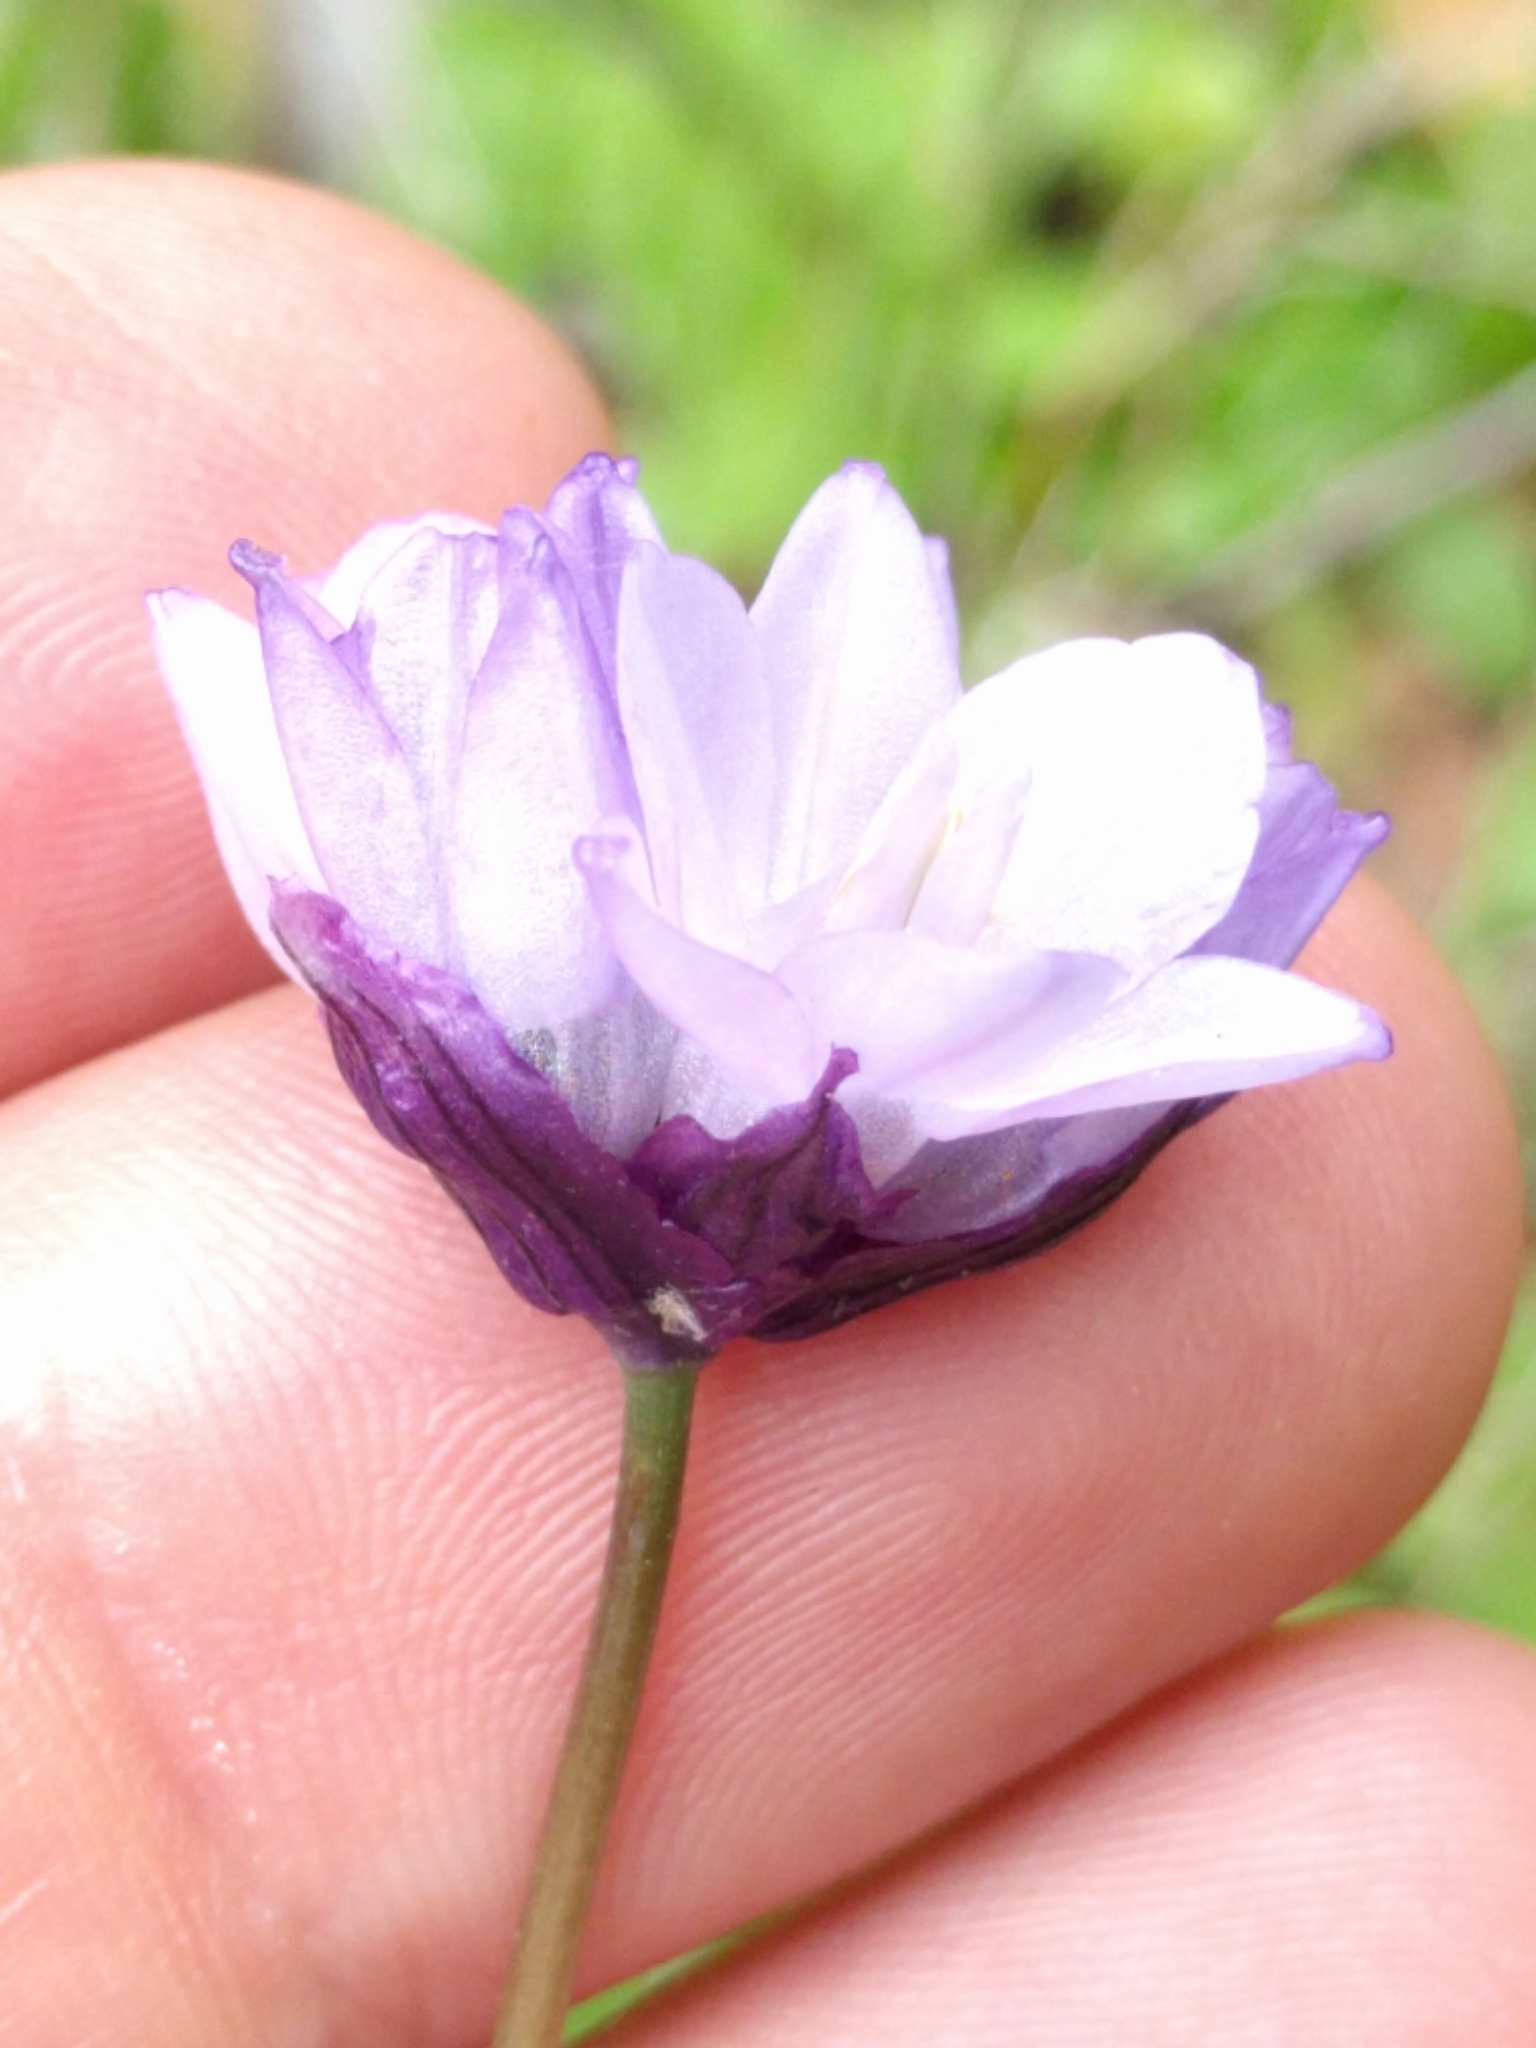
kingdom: Plantae
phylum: Tracheophyta
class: Liliopsida
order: Asparagales
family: Asparagaceae
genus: Dipterostemon
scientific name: Dipterostemon capitatus
